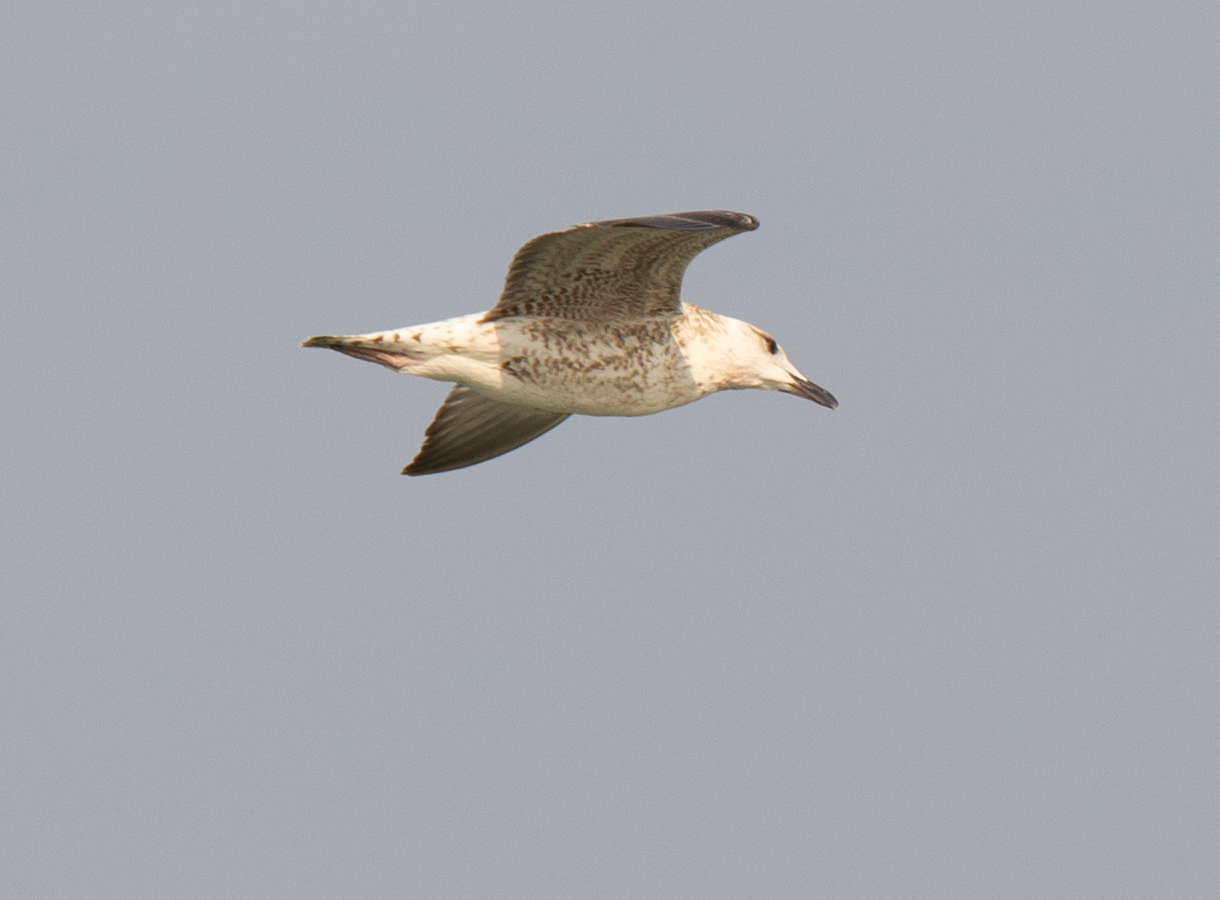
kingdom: Animalia
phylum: Chordata
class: Aves
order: Charadriiformes
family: Laridae
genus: Larus
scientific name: Larus michahellis
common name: Yellow-legged gull
